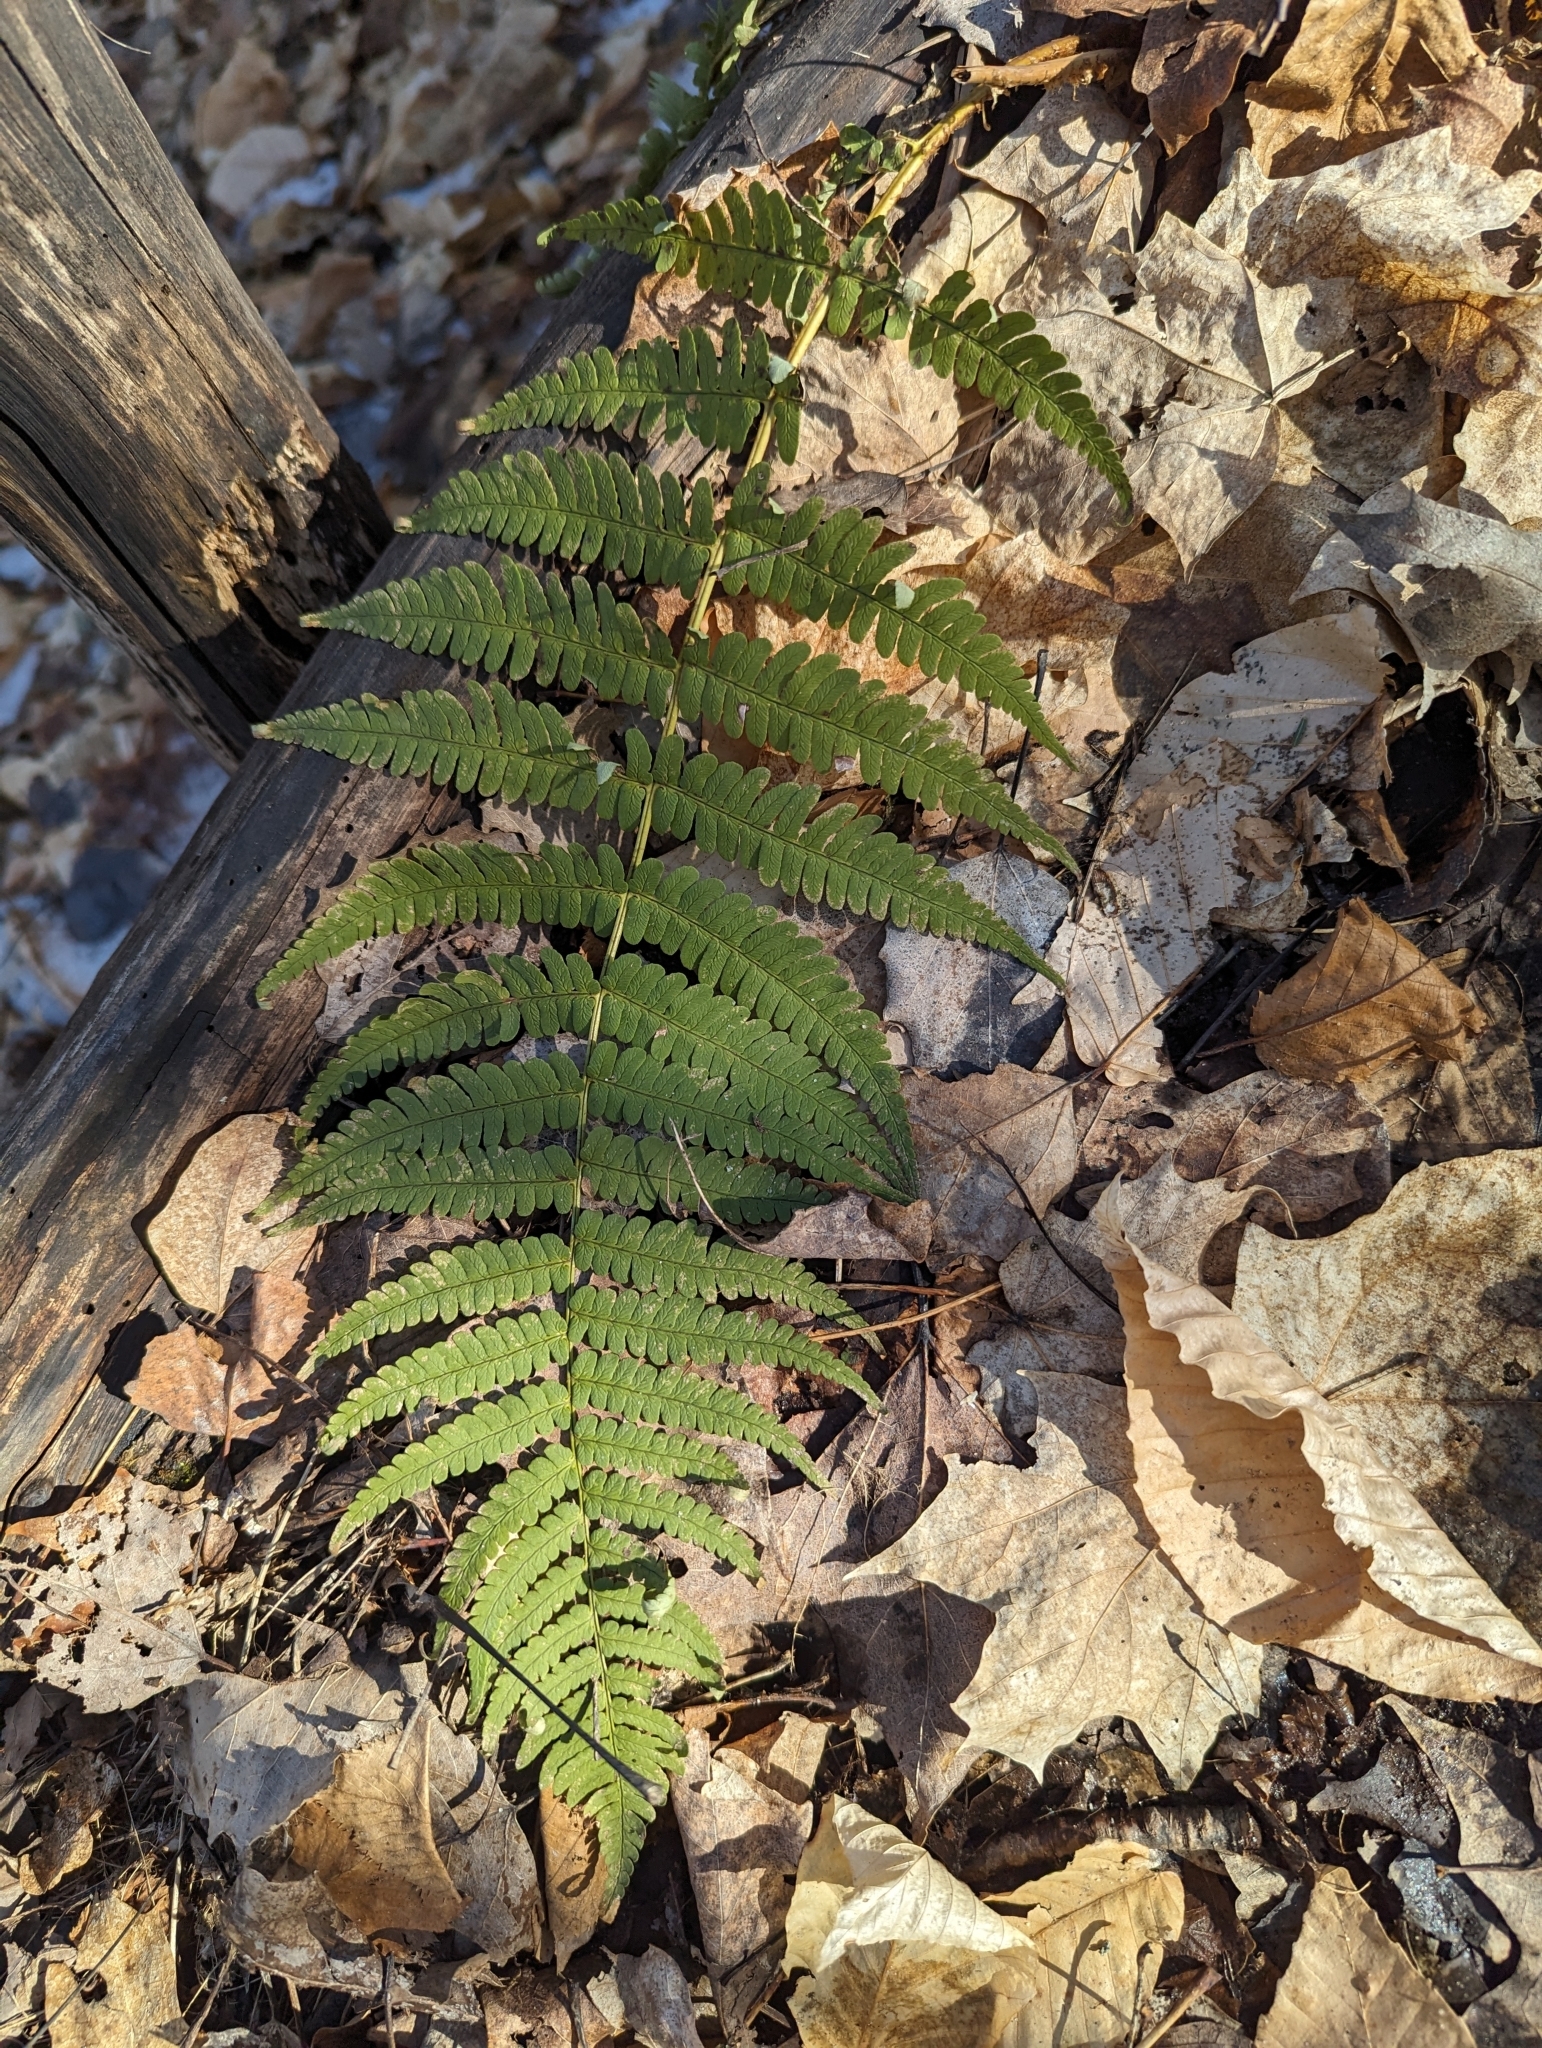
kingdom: Plantae
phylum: Tracheophyta
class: Polypodiopsida
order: Polypodiales
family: Dryopteridaceae
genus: Dryopteris
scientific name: Dryopteris marginalis
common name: Marginal wood fern
